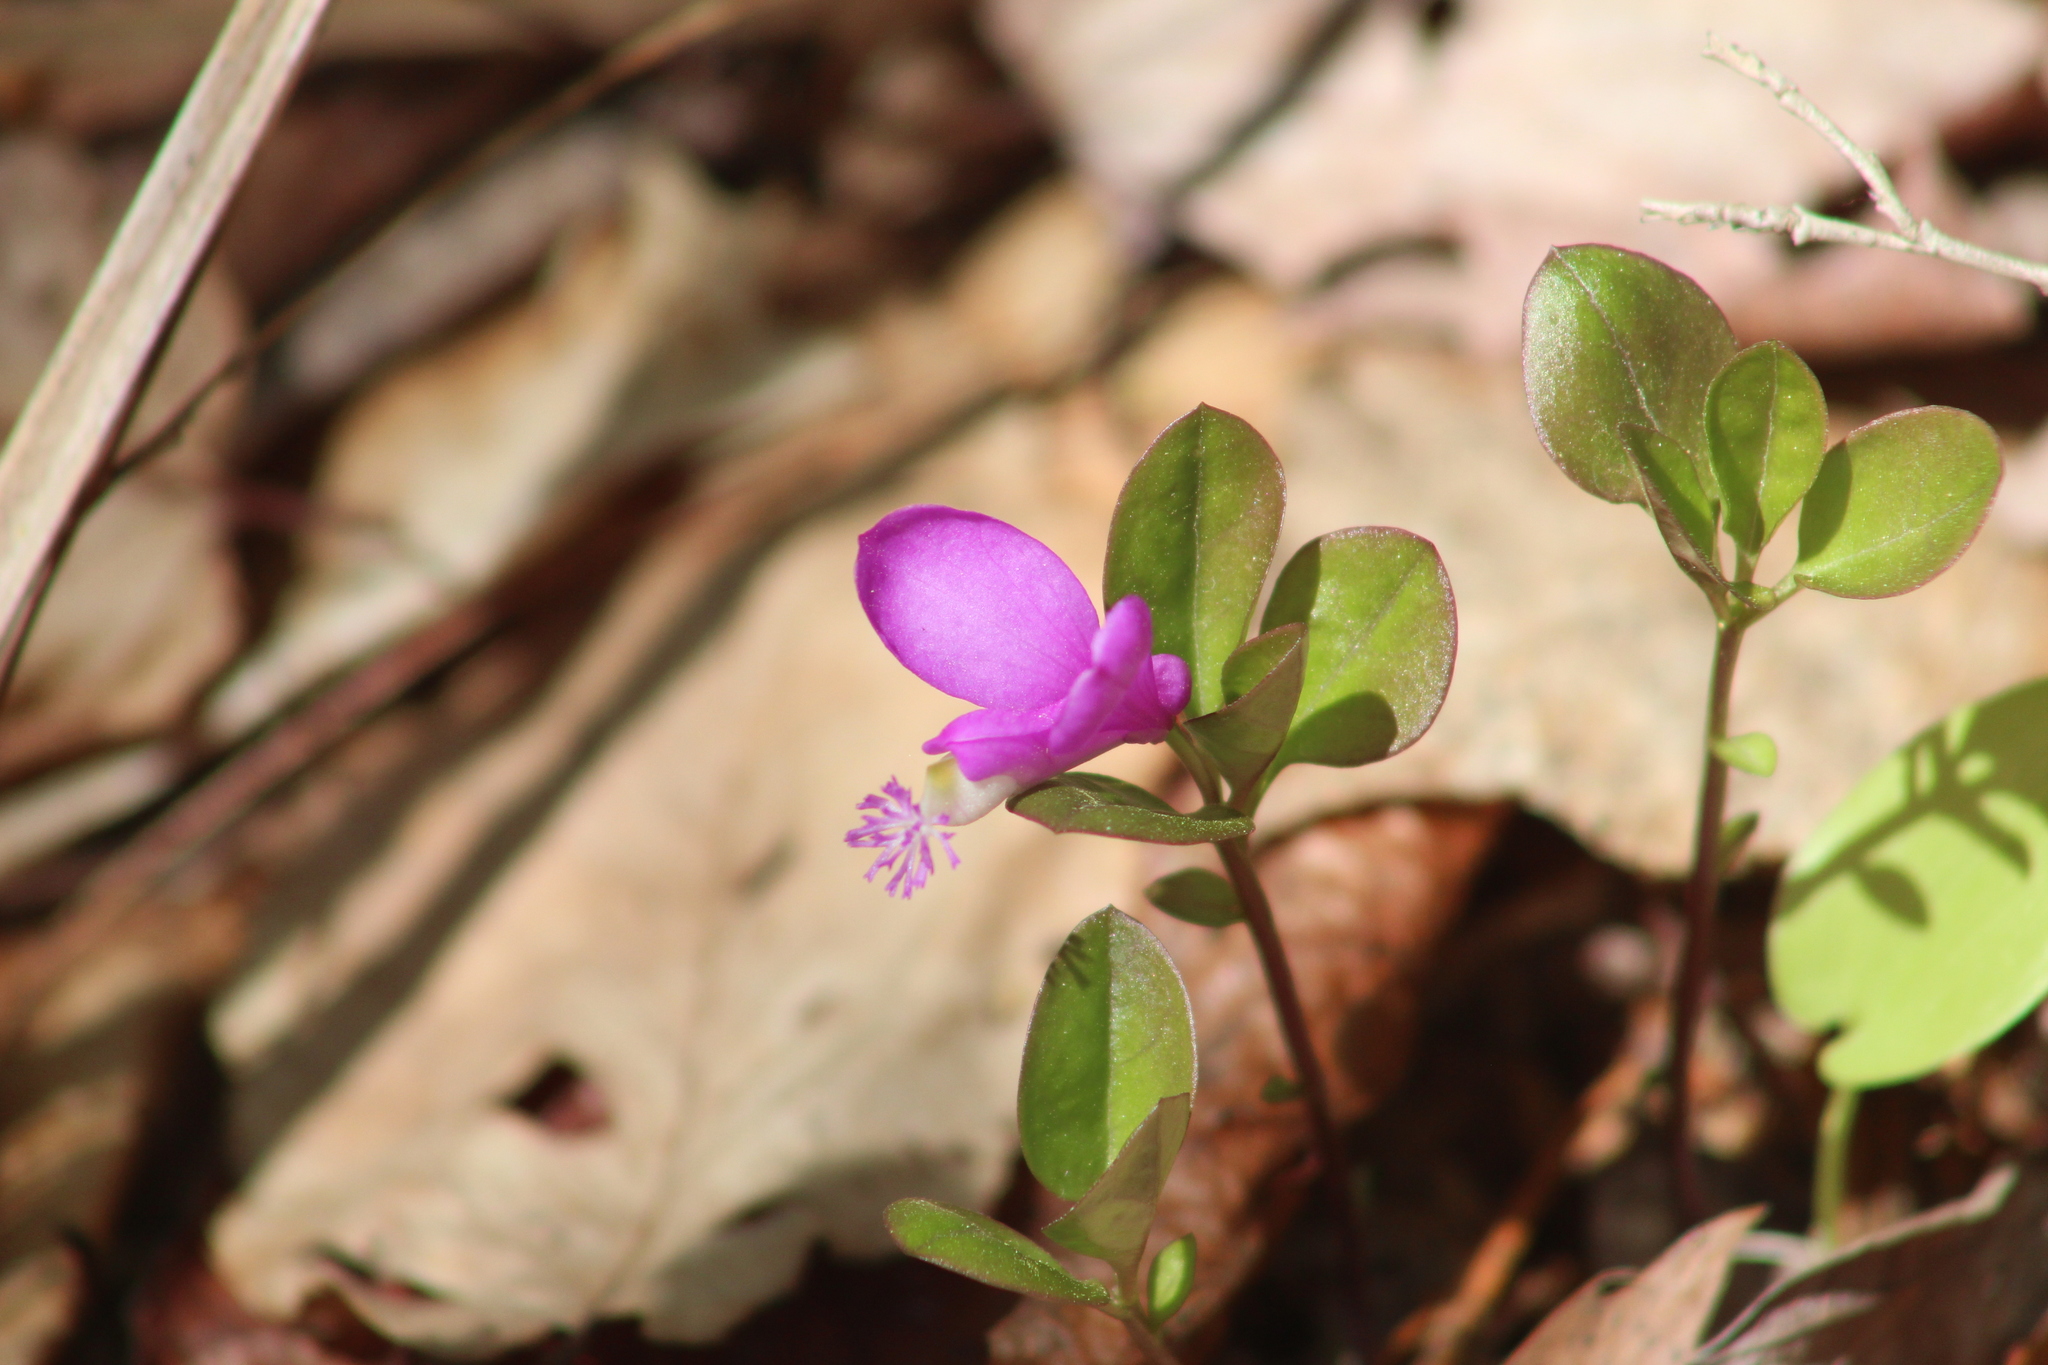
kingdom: Plantae
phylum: Tracheophyta
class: Magnoliopsida
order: Fabales
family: Polygalaceae
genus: Polygaloides
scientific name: Polygaloides paucifolia
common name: Bird-on-the-wing
